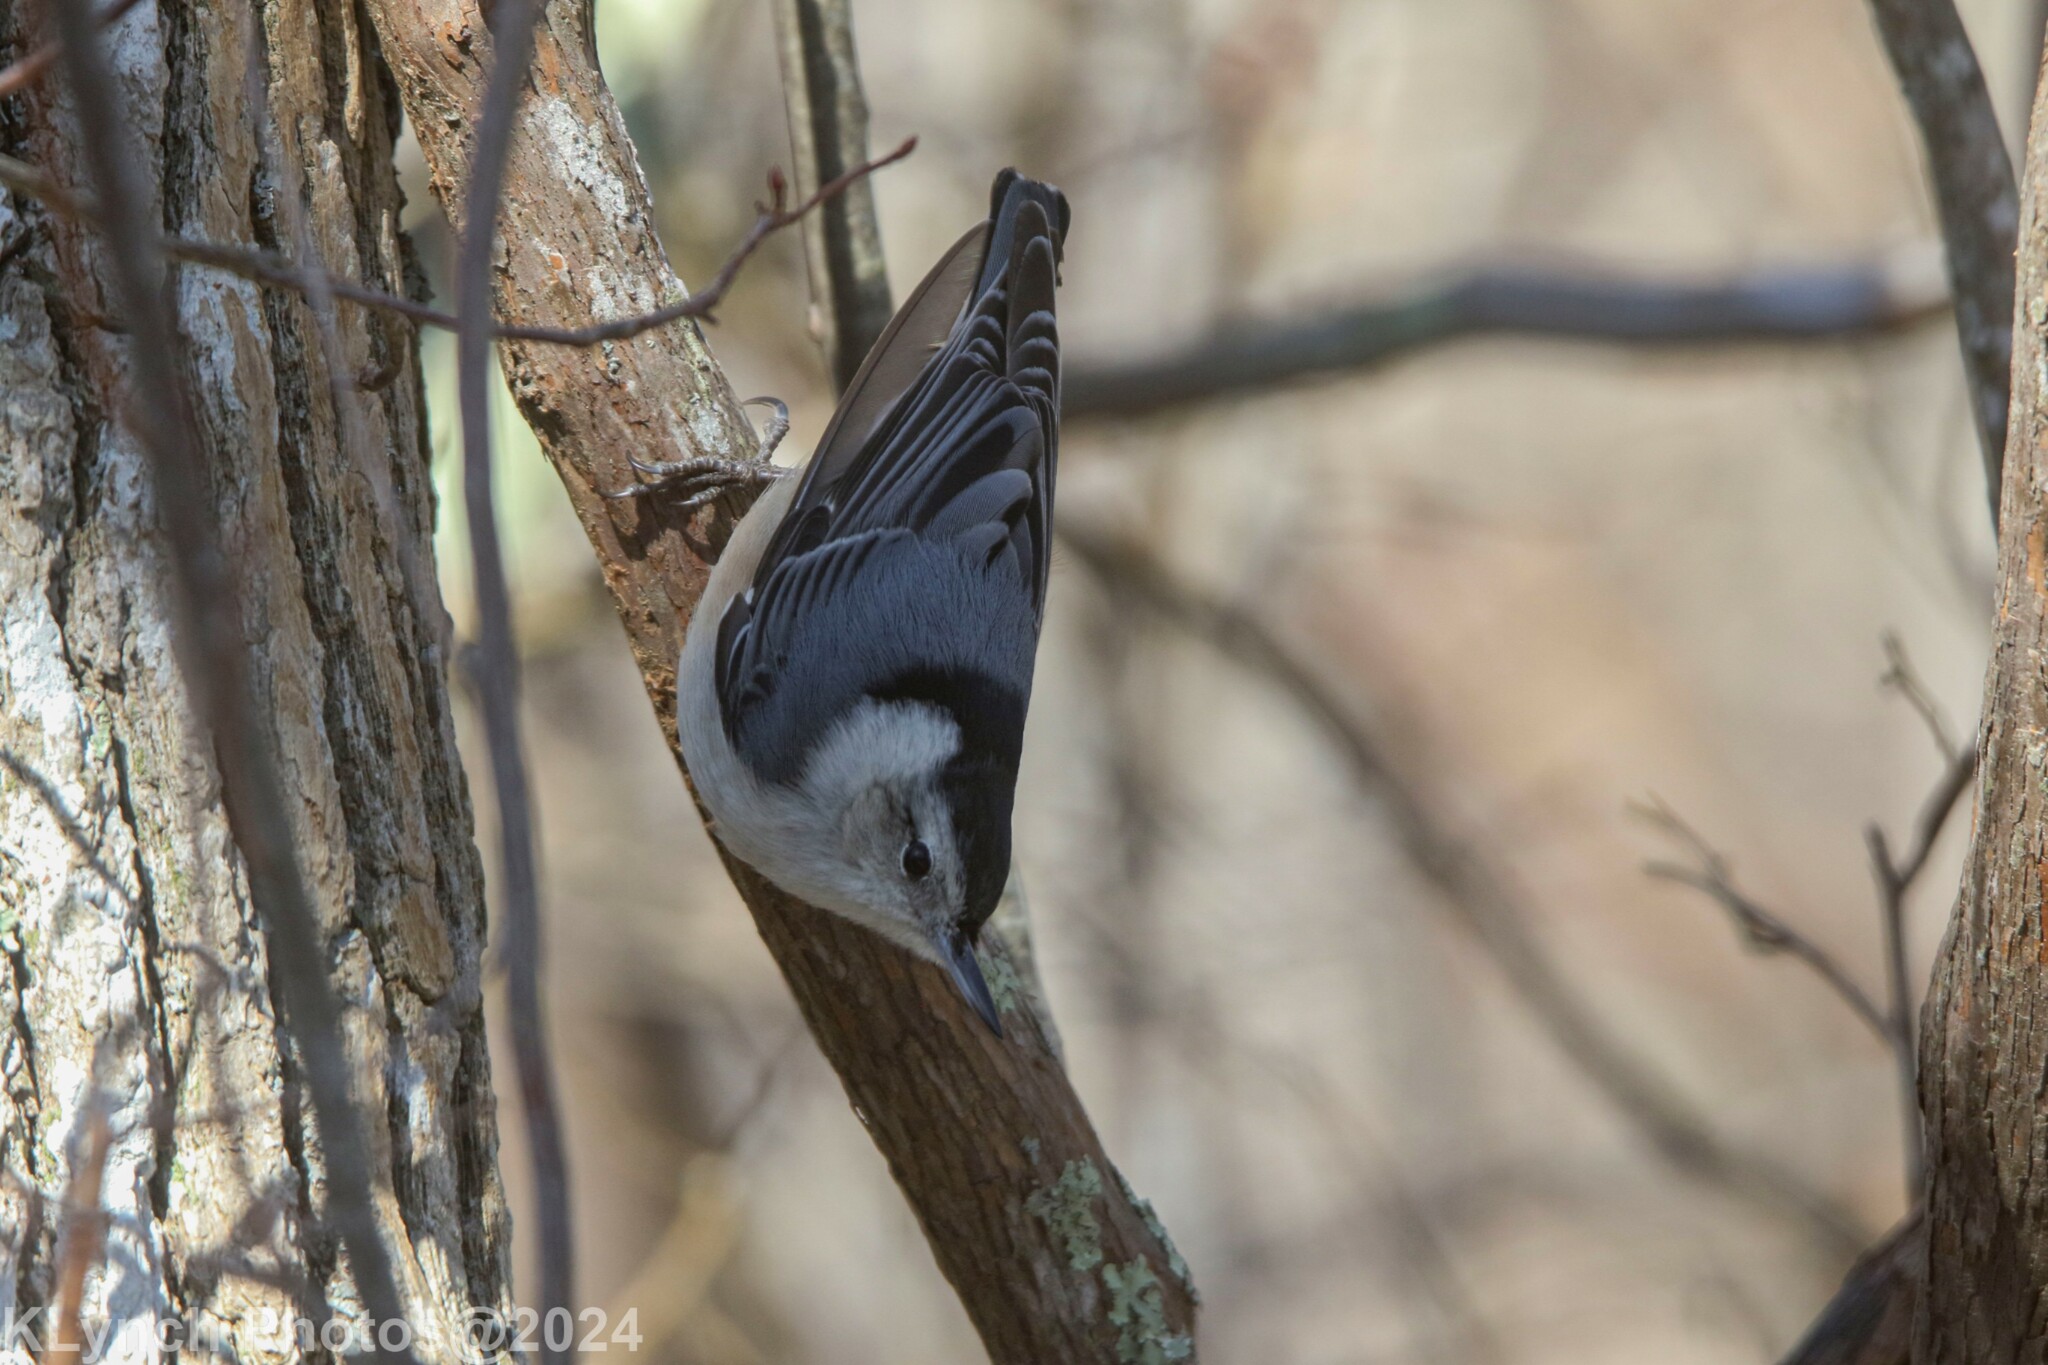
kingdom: Animalia
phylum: Chordata
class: Aves
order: Passeriformes
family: Sittidae
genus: Sitta
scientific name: Sitta carolinensis
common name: White-breasted nuthatch
